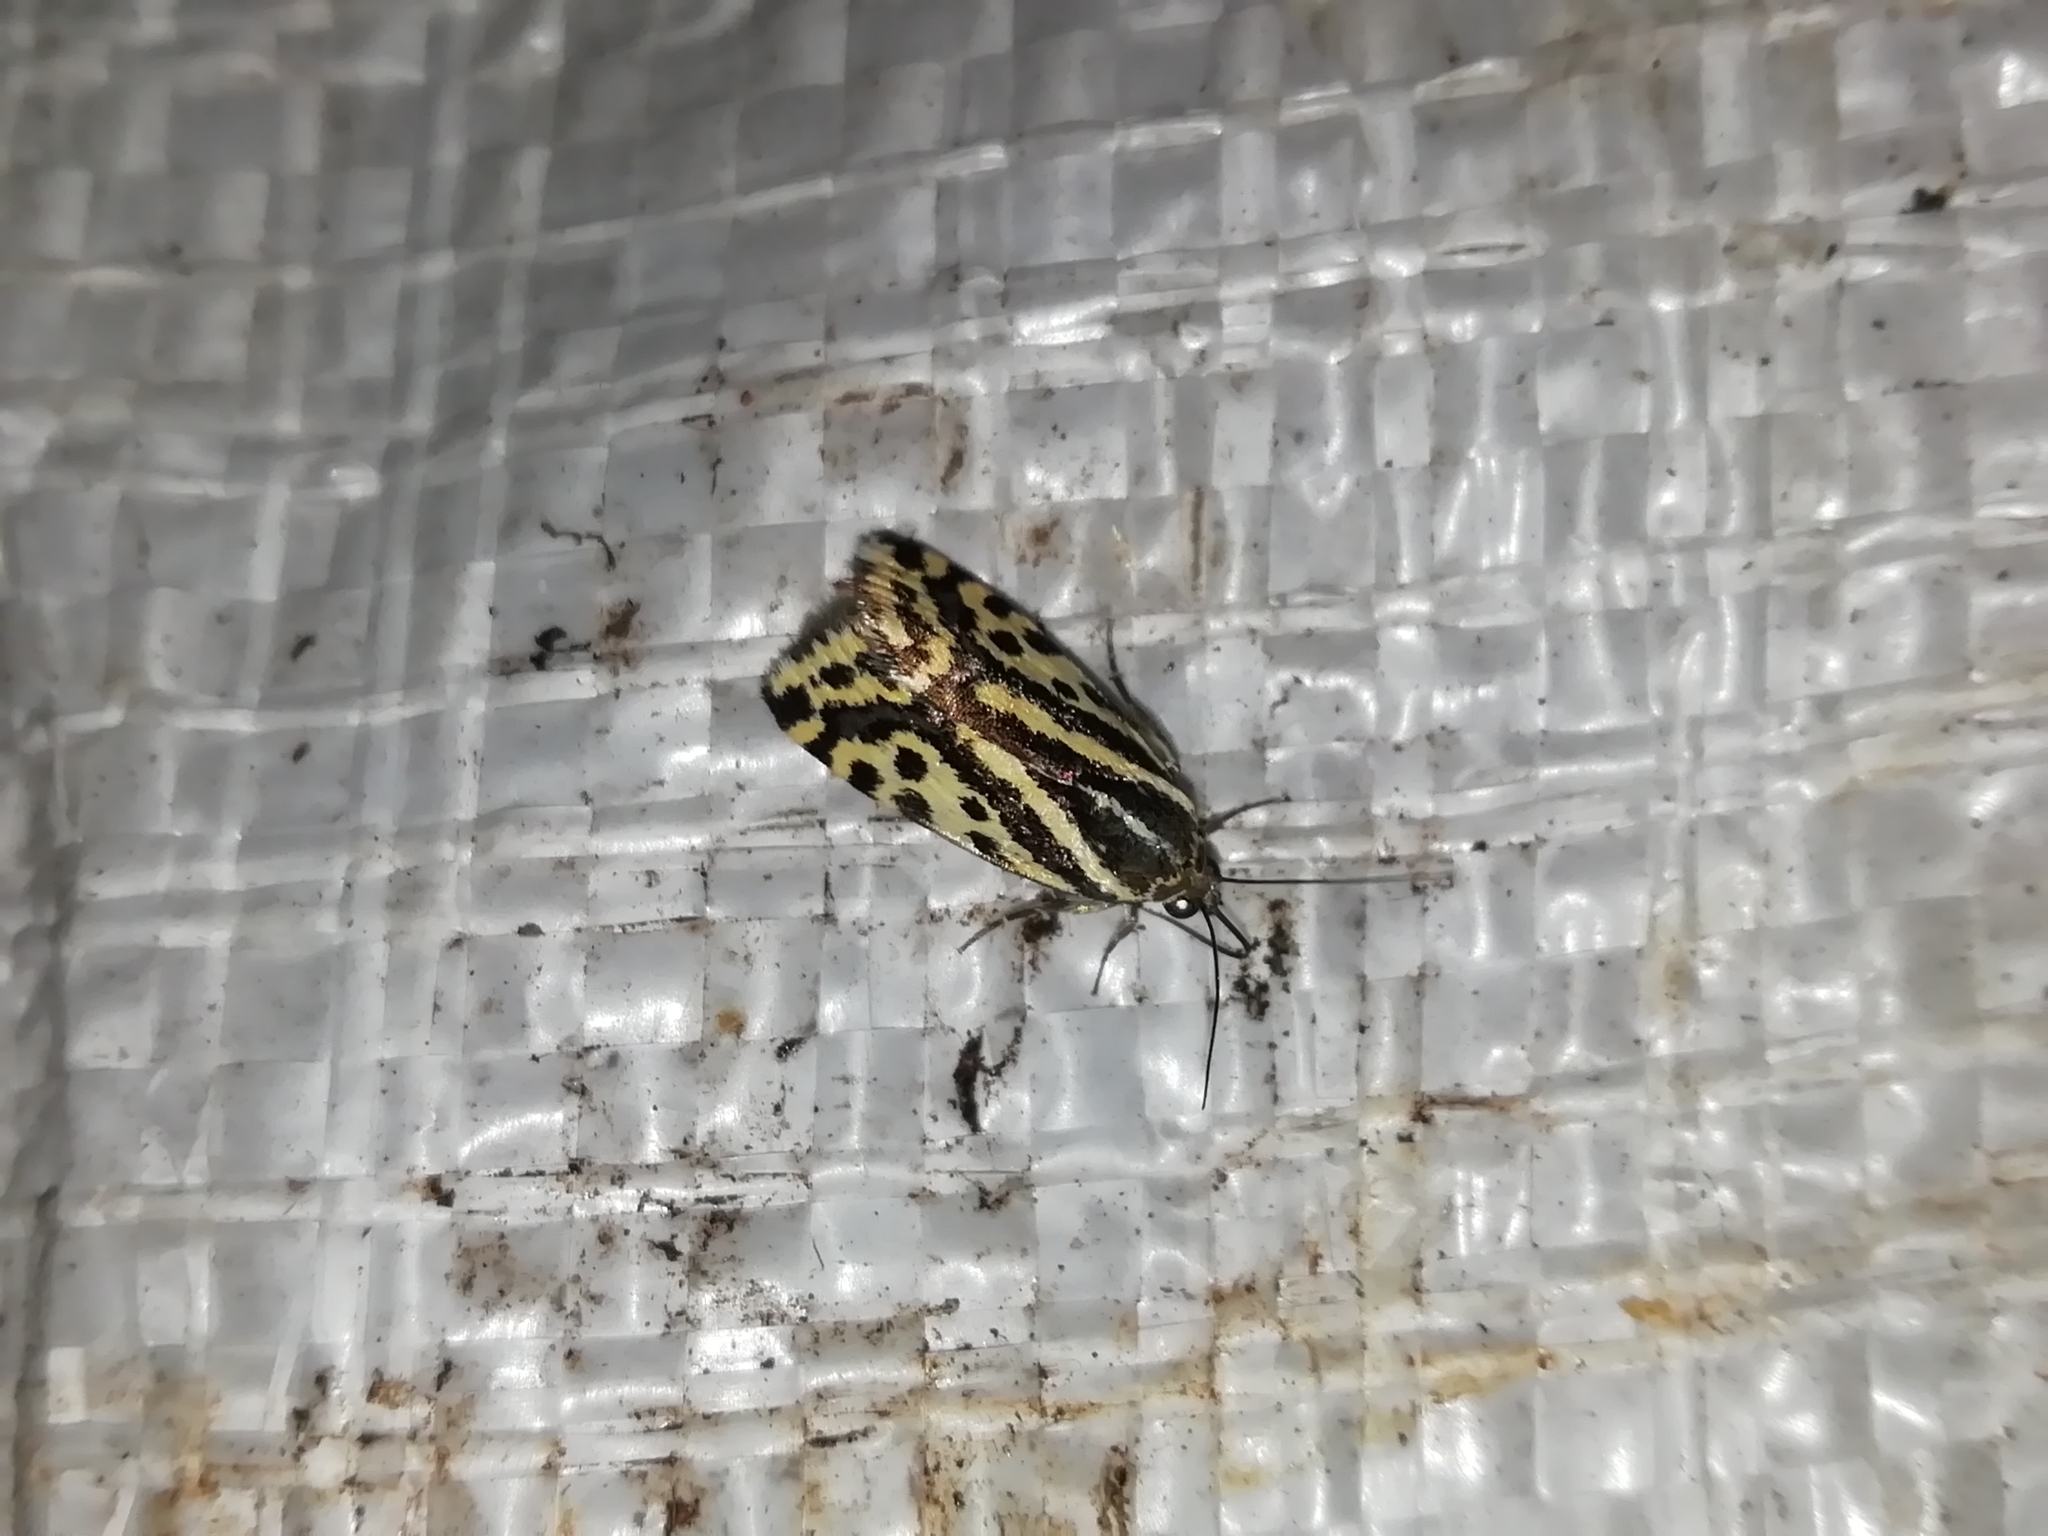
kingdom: Animalia
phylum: Arthropoda
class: Insecta
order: Lepidoptera
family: Noctuidae
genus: Acontia
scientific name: Acontia trabealis
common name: Spotted sulphur
